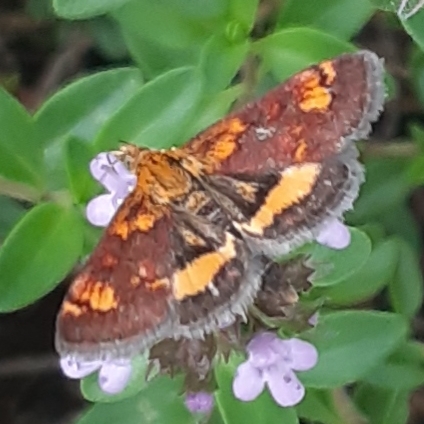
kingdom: Animalia
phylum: Arthropoda
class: Insecta
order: Lepidoptera
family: Crambidae
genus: Pyrausta
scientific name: Pyrausta orphisalis
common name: Orange mint moth
